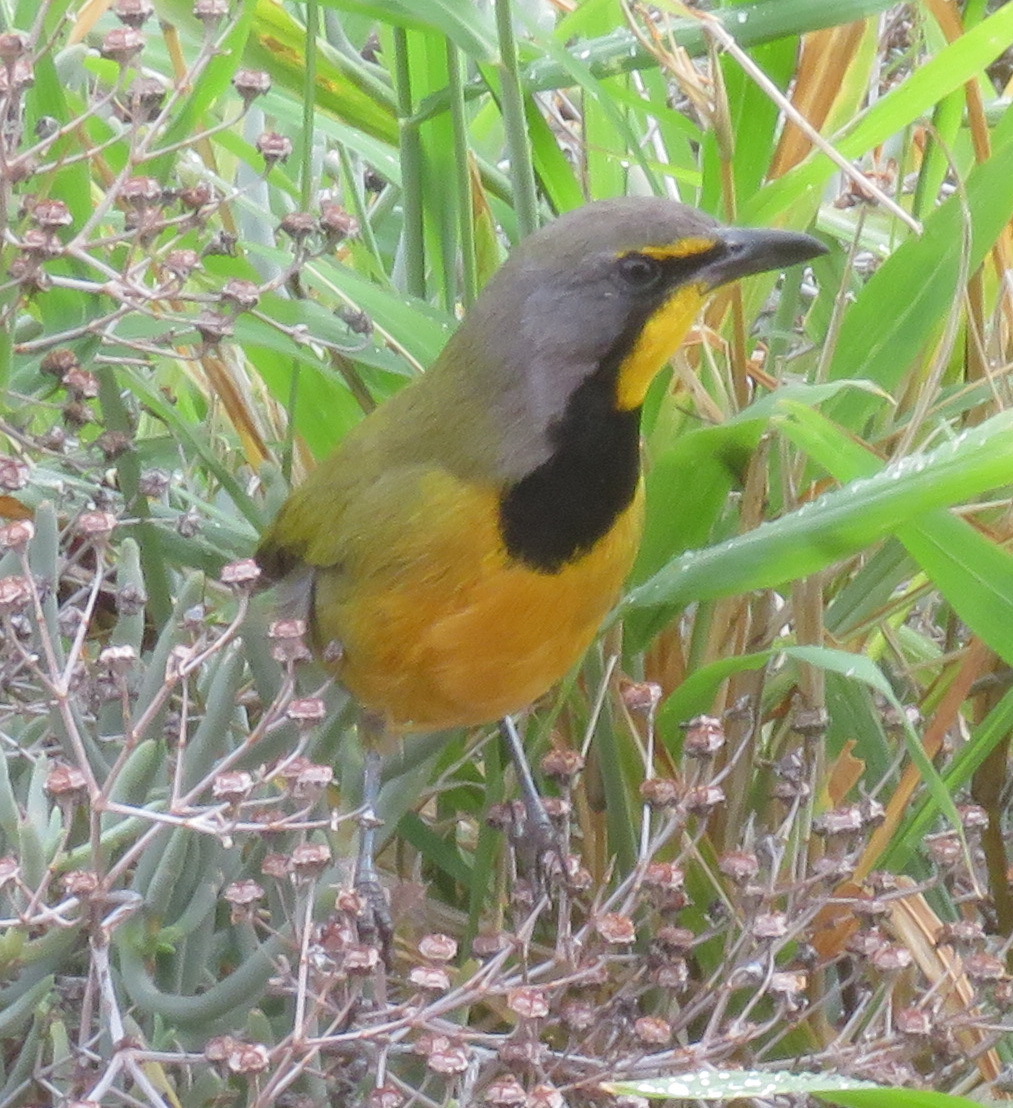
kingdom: Animalia
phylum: Chordata
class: Aves
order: Passeriformes
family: Malaconotidae
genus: Telophorus
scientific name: Telophorus zeylonus
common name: Bokmakierie
